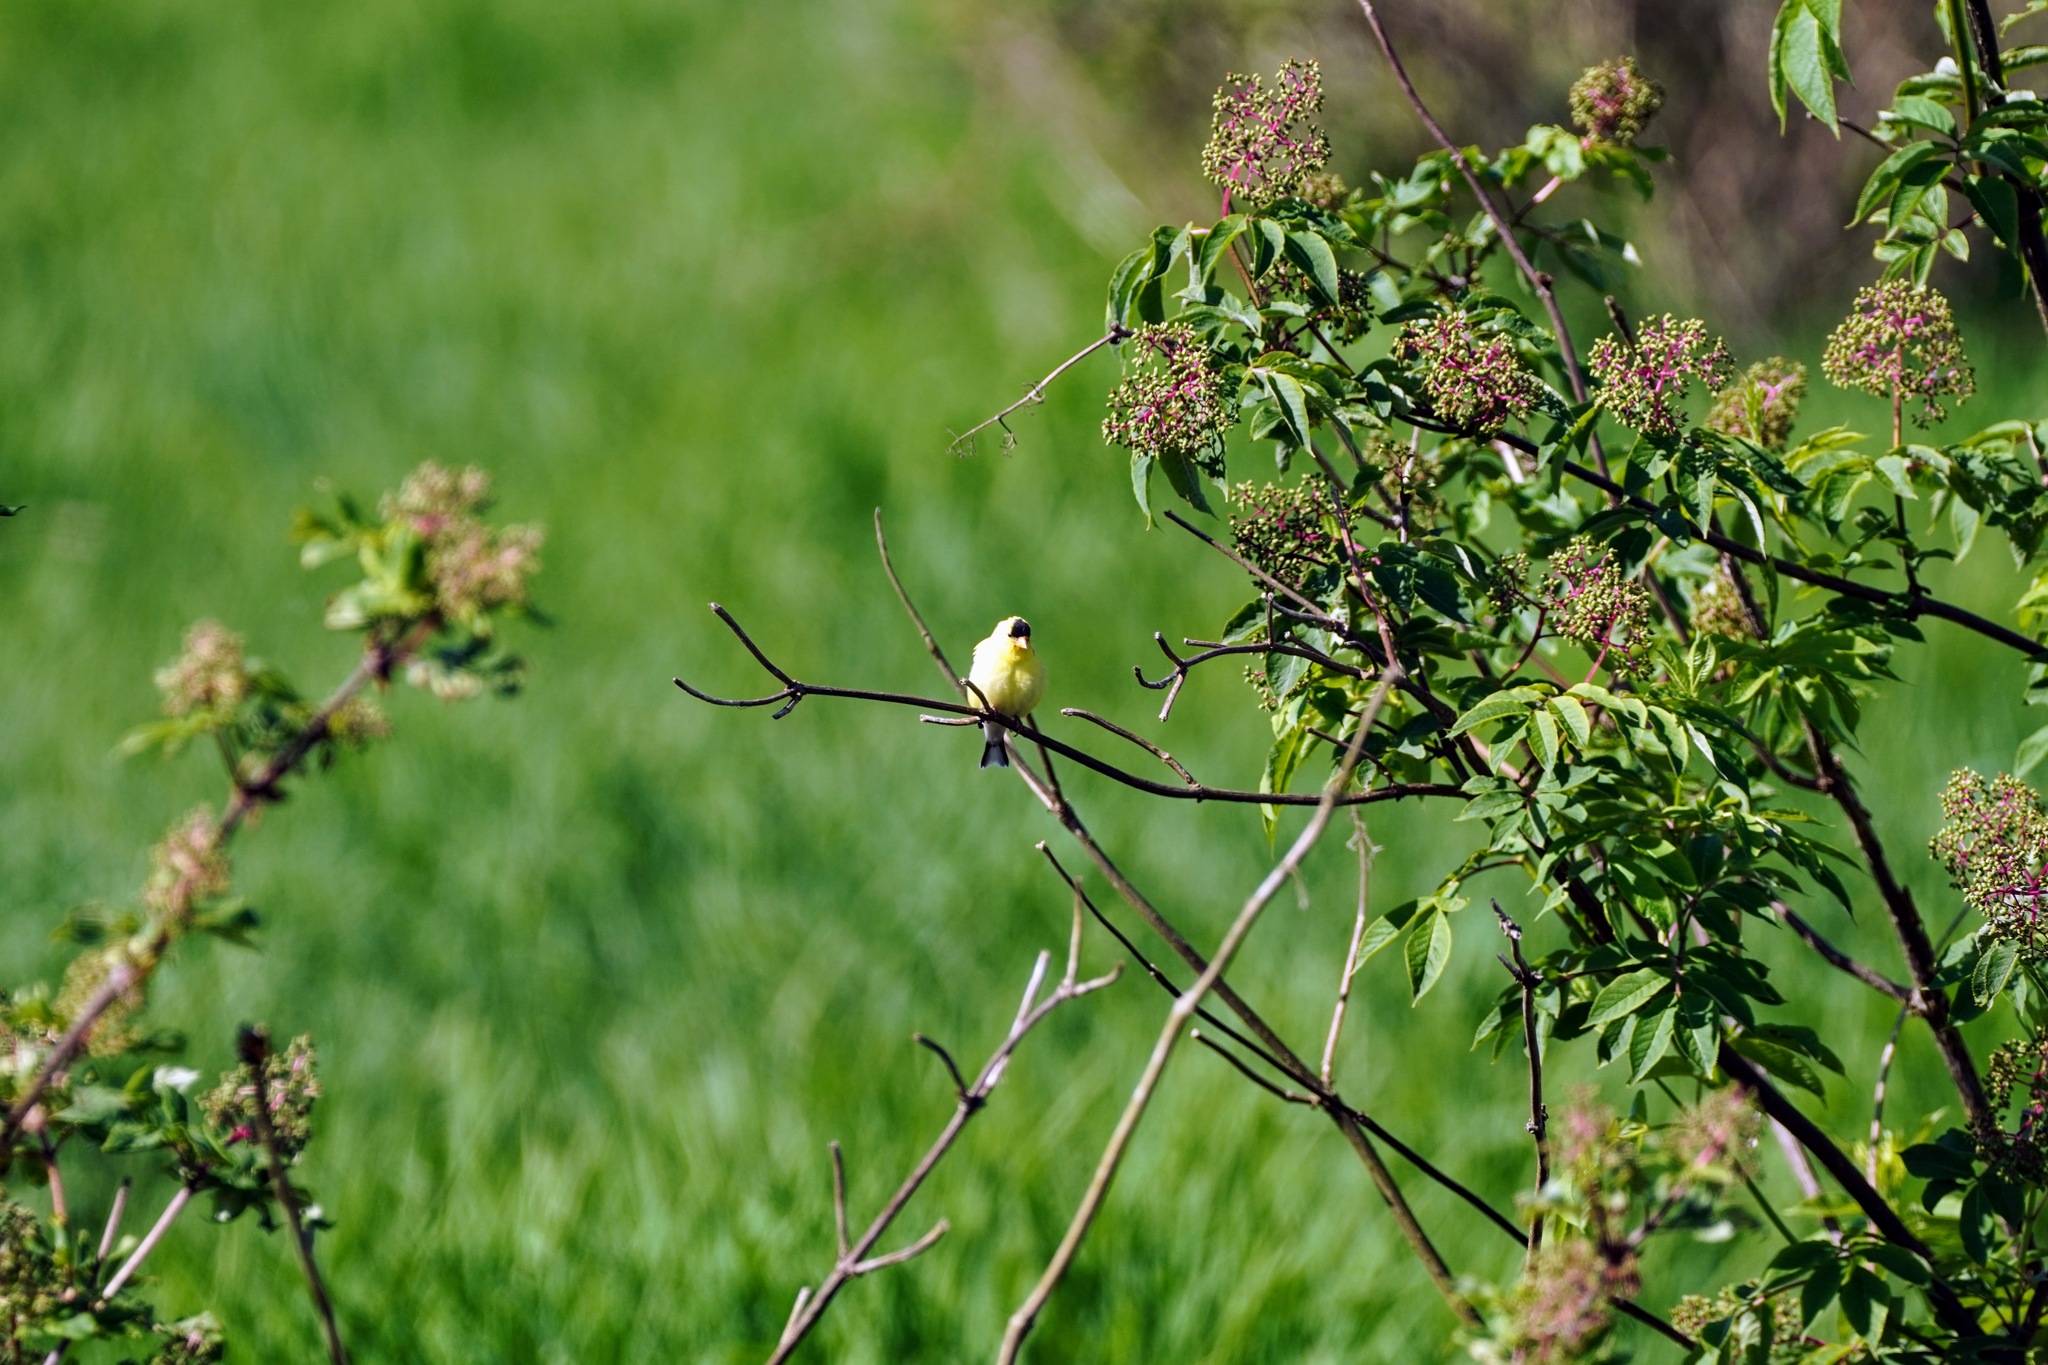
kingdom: Animalia
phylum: Chordata
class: Aves
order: Passeriformes
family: Fringillidae
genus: Spinus
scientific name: Spinus tristis
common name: American goldfinch
